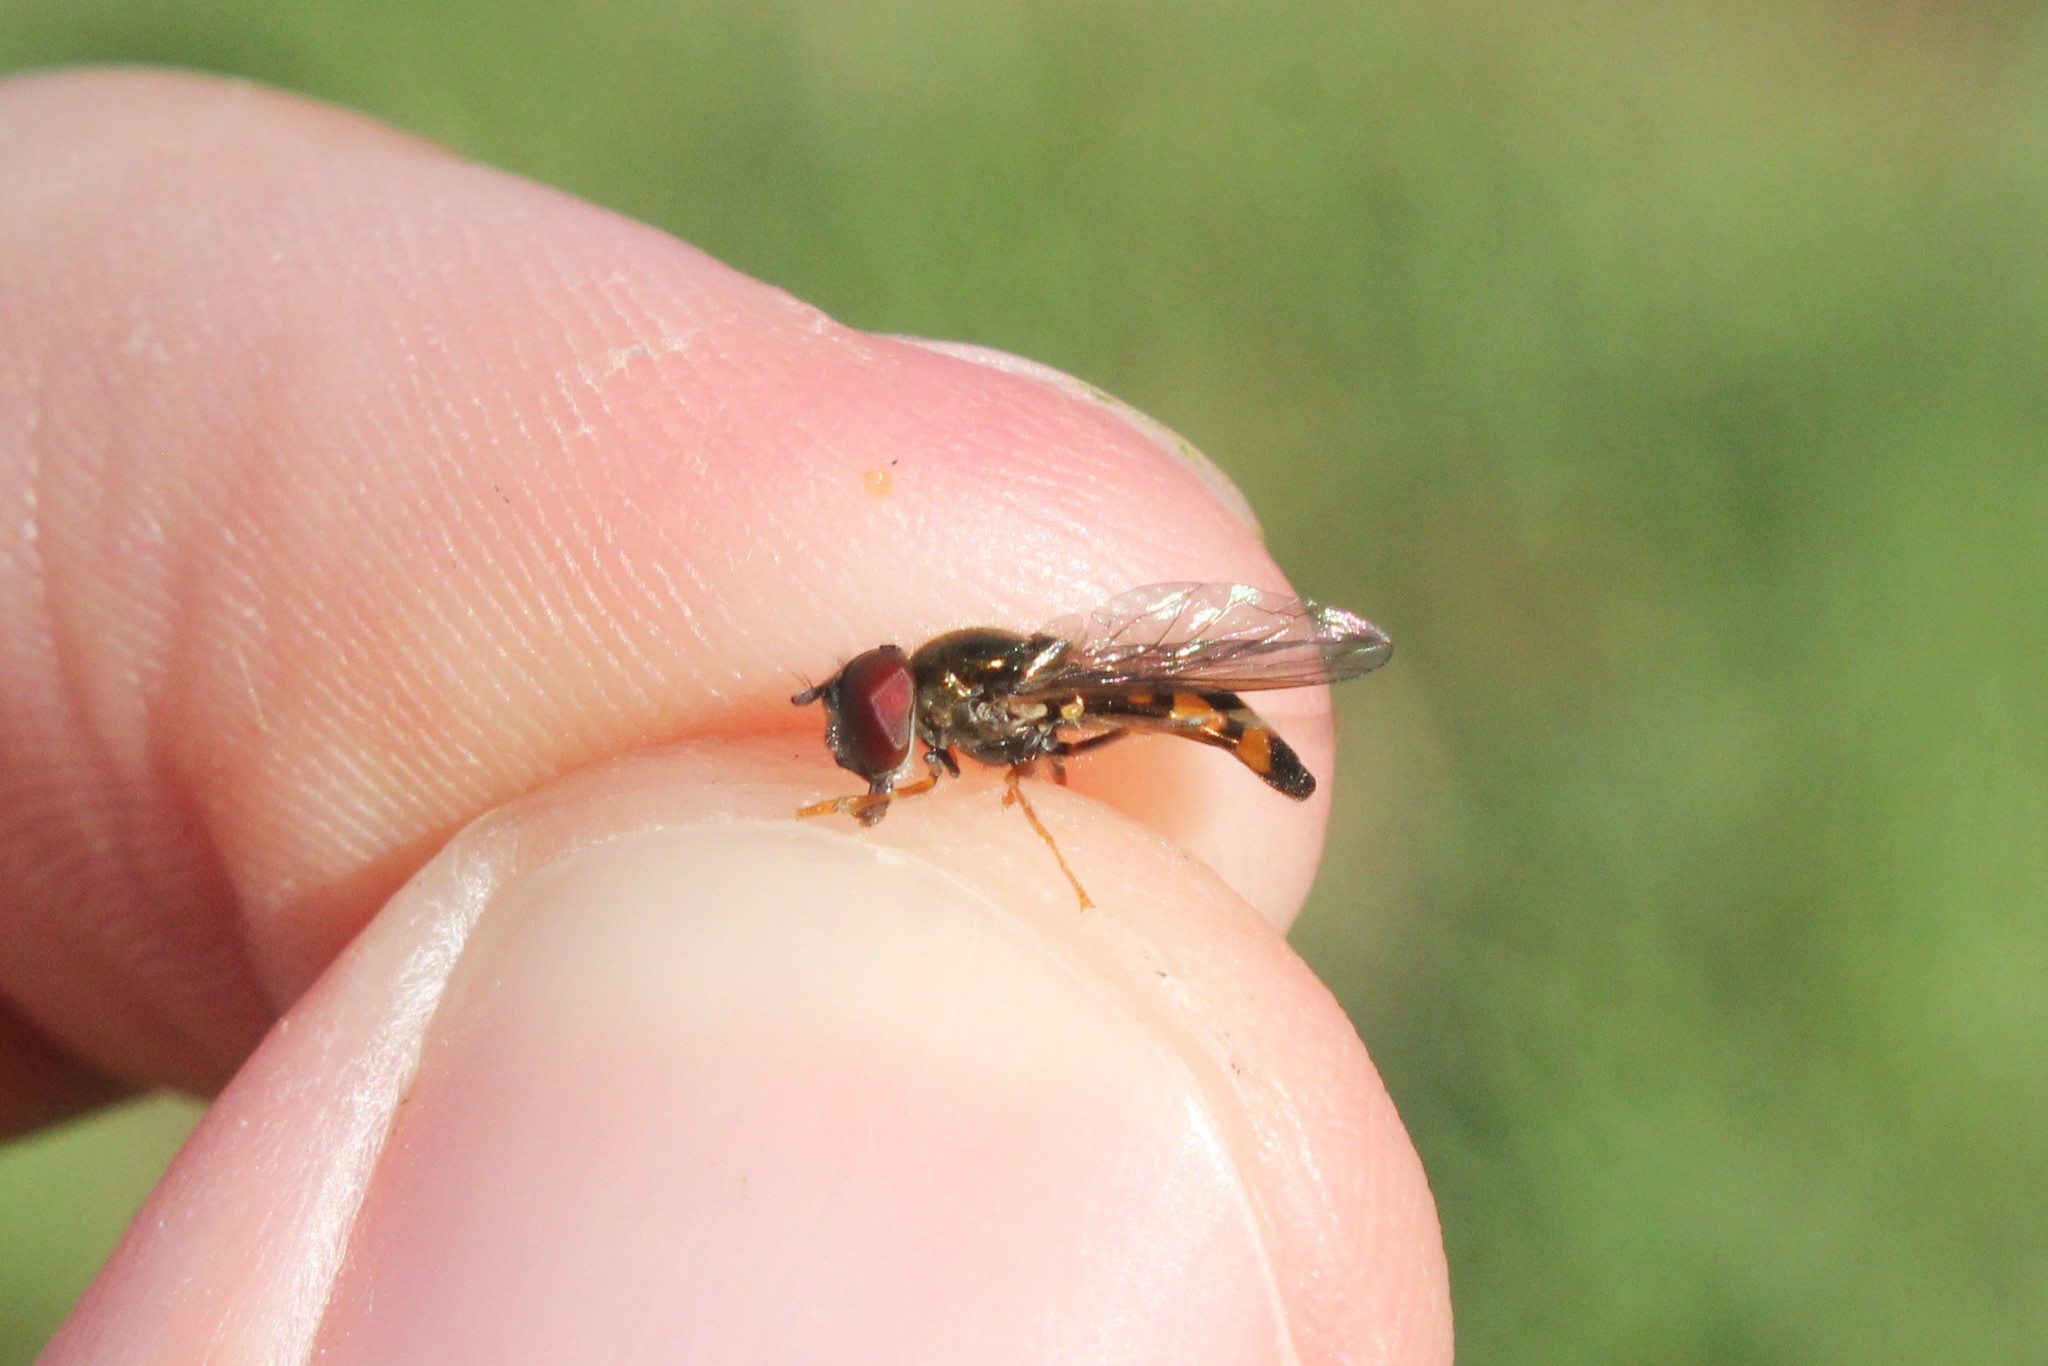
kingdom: Animalia
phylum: Arthropoda
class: Insecta
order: Diptera
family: Syrphidae
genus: Melanostoma
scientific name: Melanostoma mellina
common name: Hover fly
